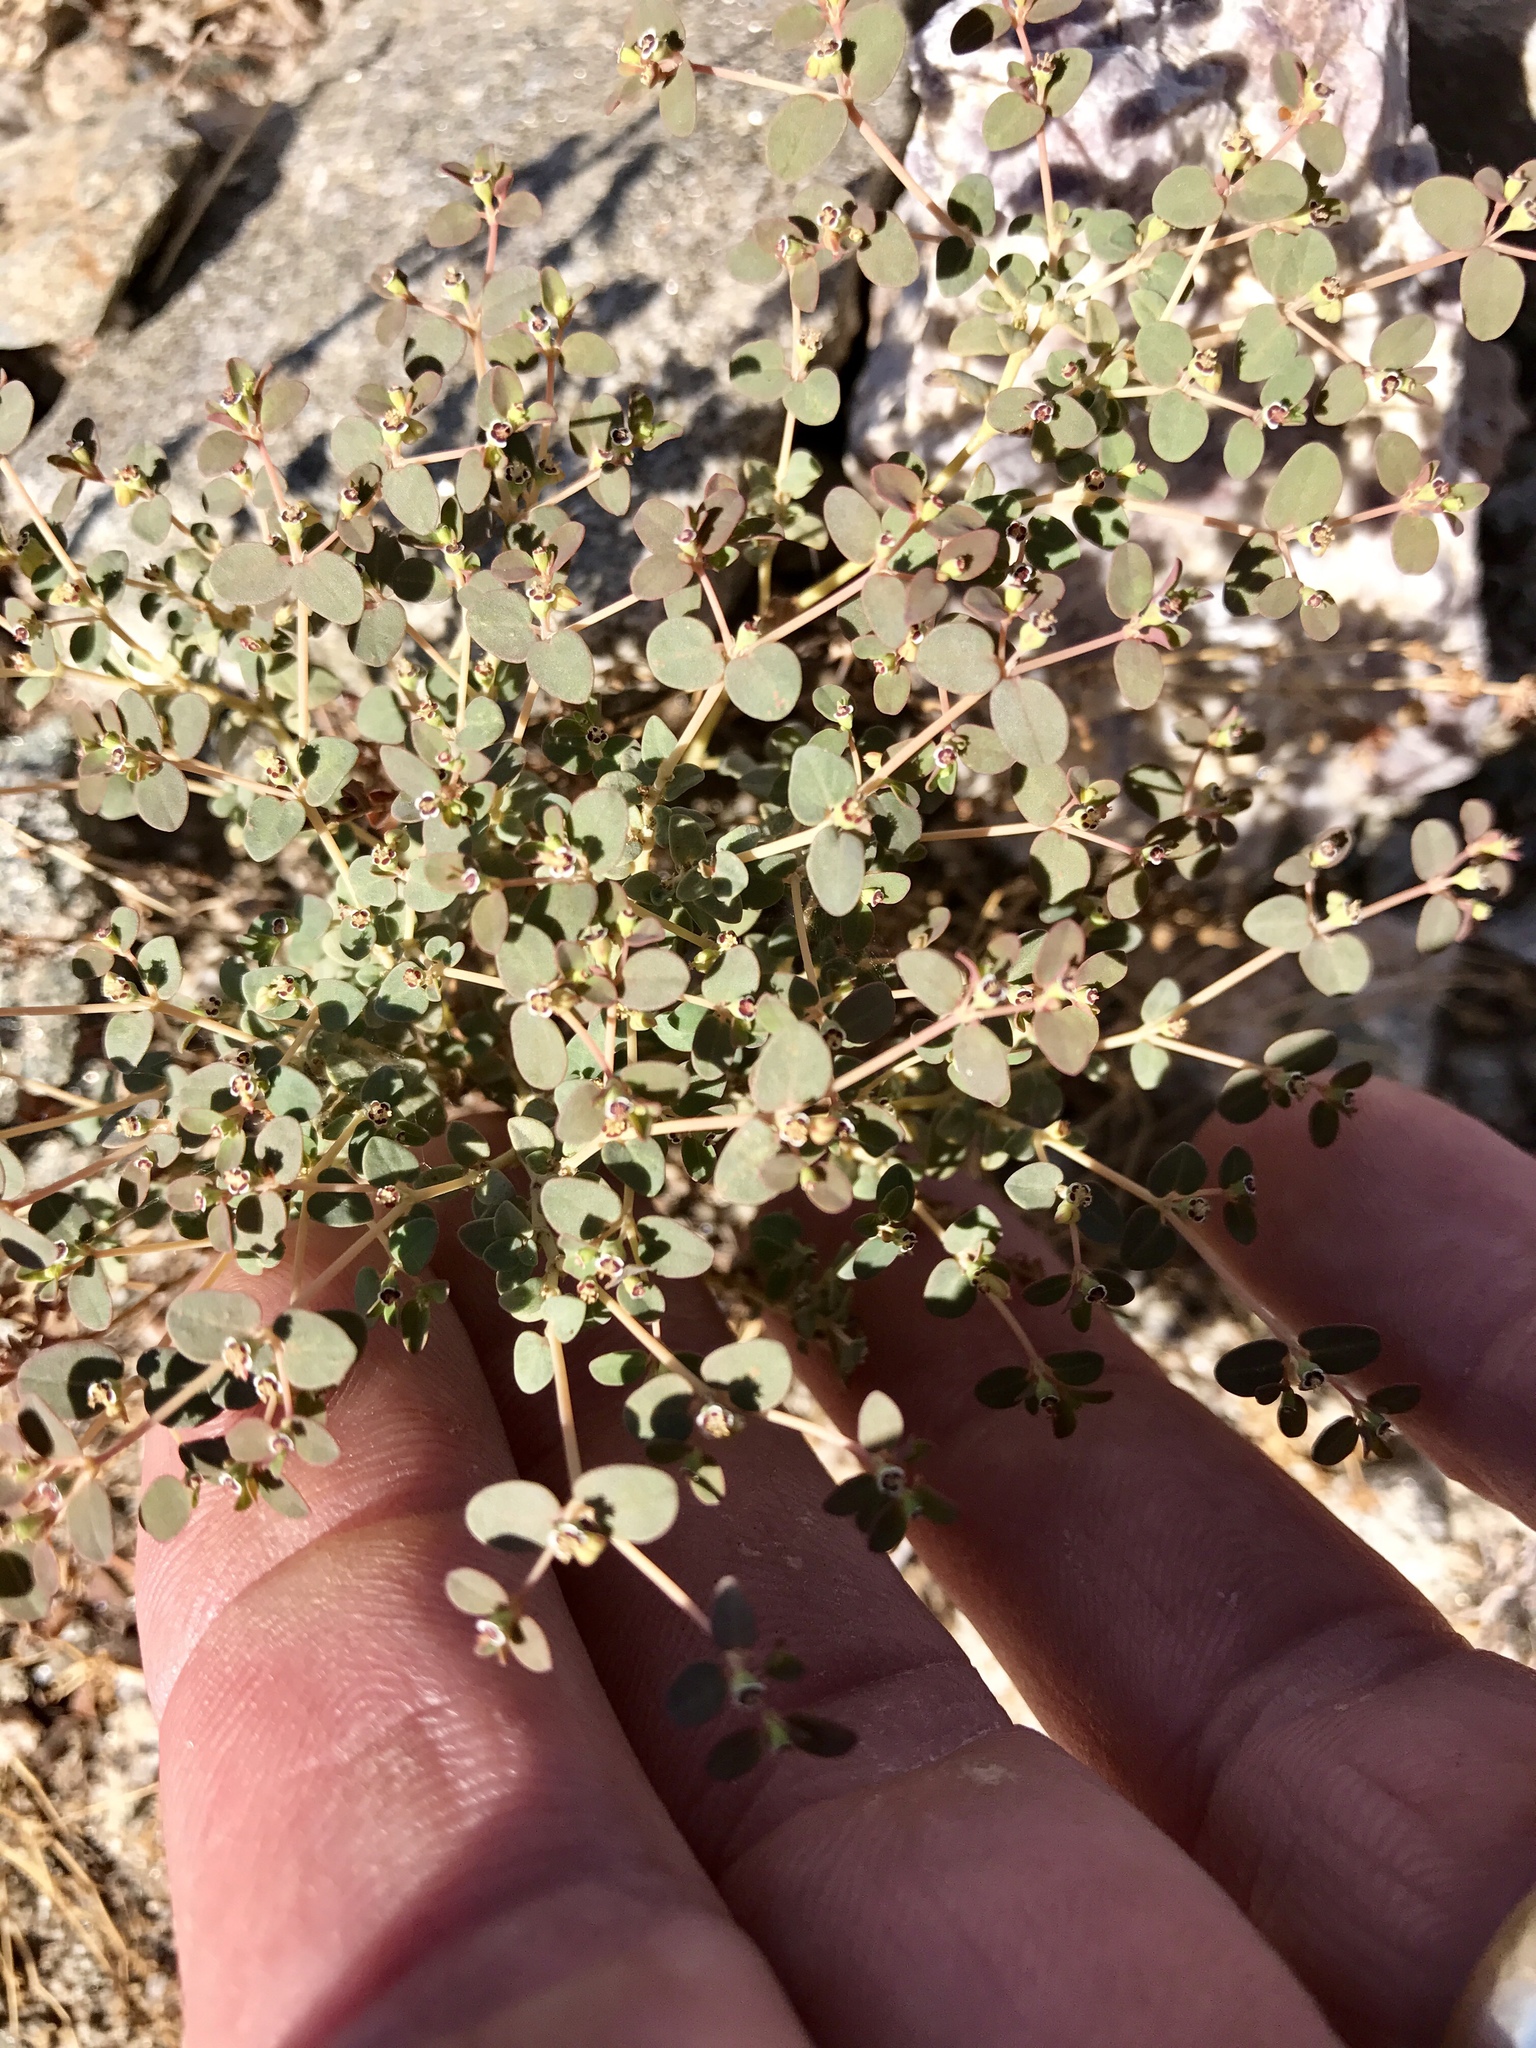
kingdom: Plantae
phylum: Tracheophyta
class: Magnoliopsida
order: Malpighiales
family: Euphorbiaceae
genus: Euphorbia
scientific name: Euphorbia polycarpa
